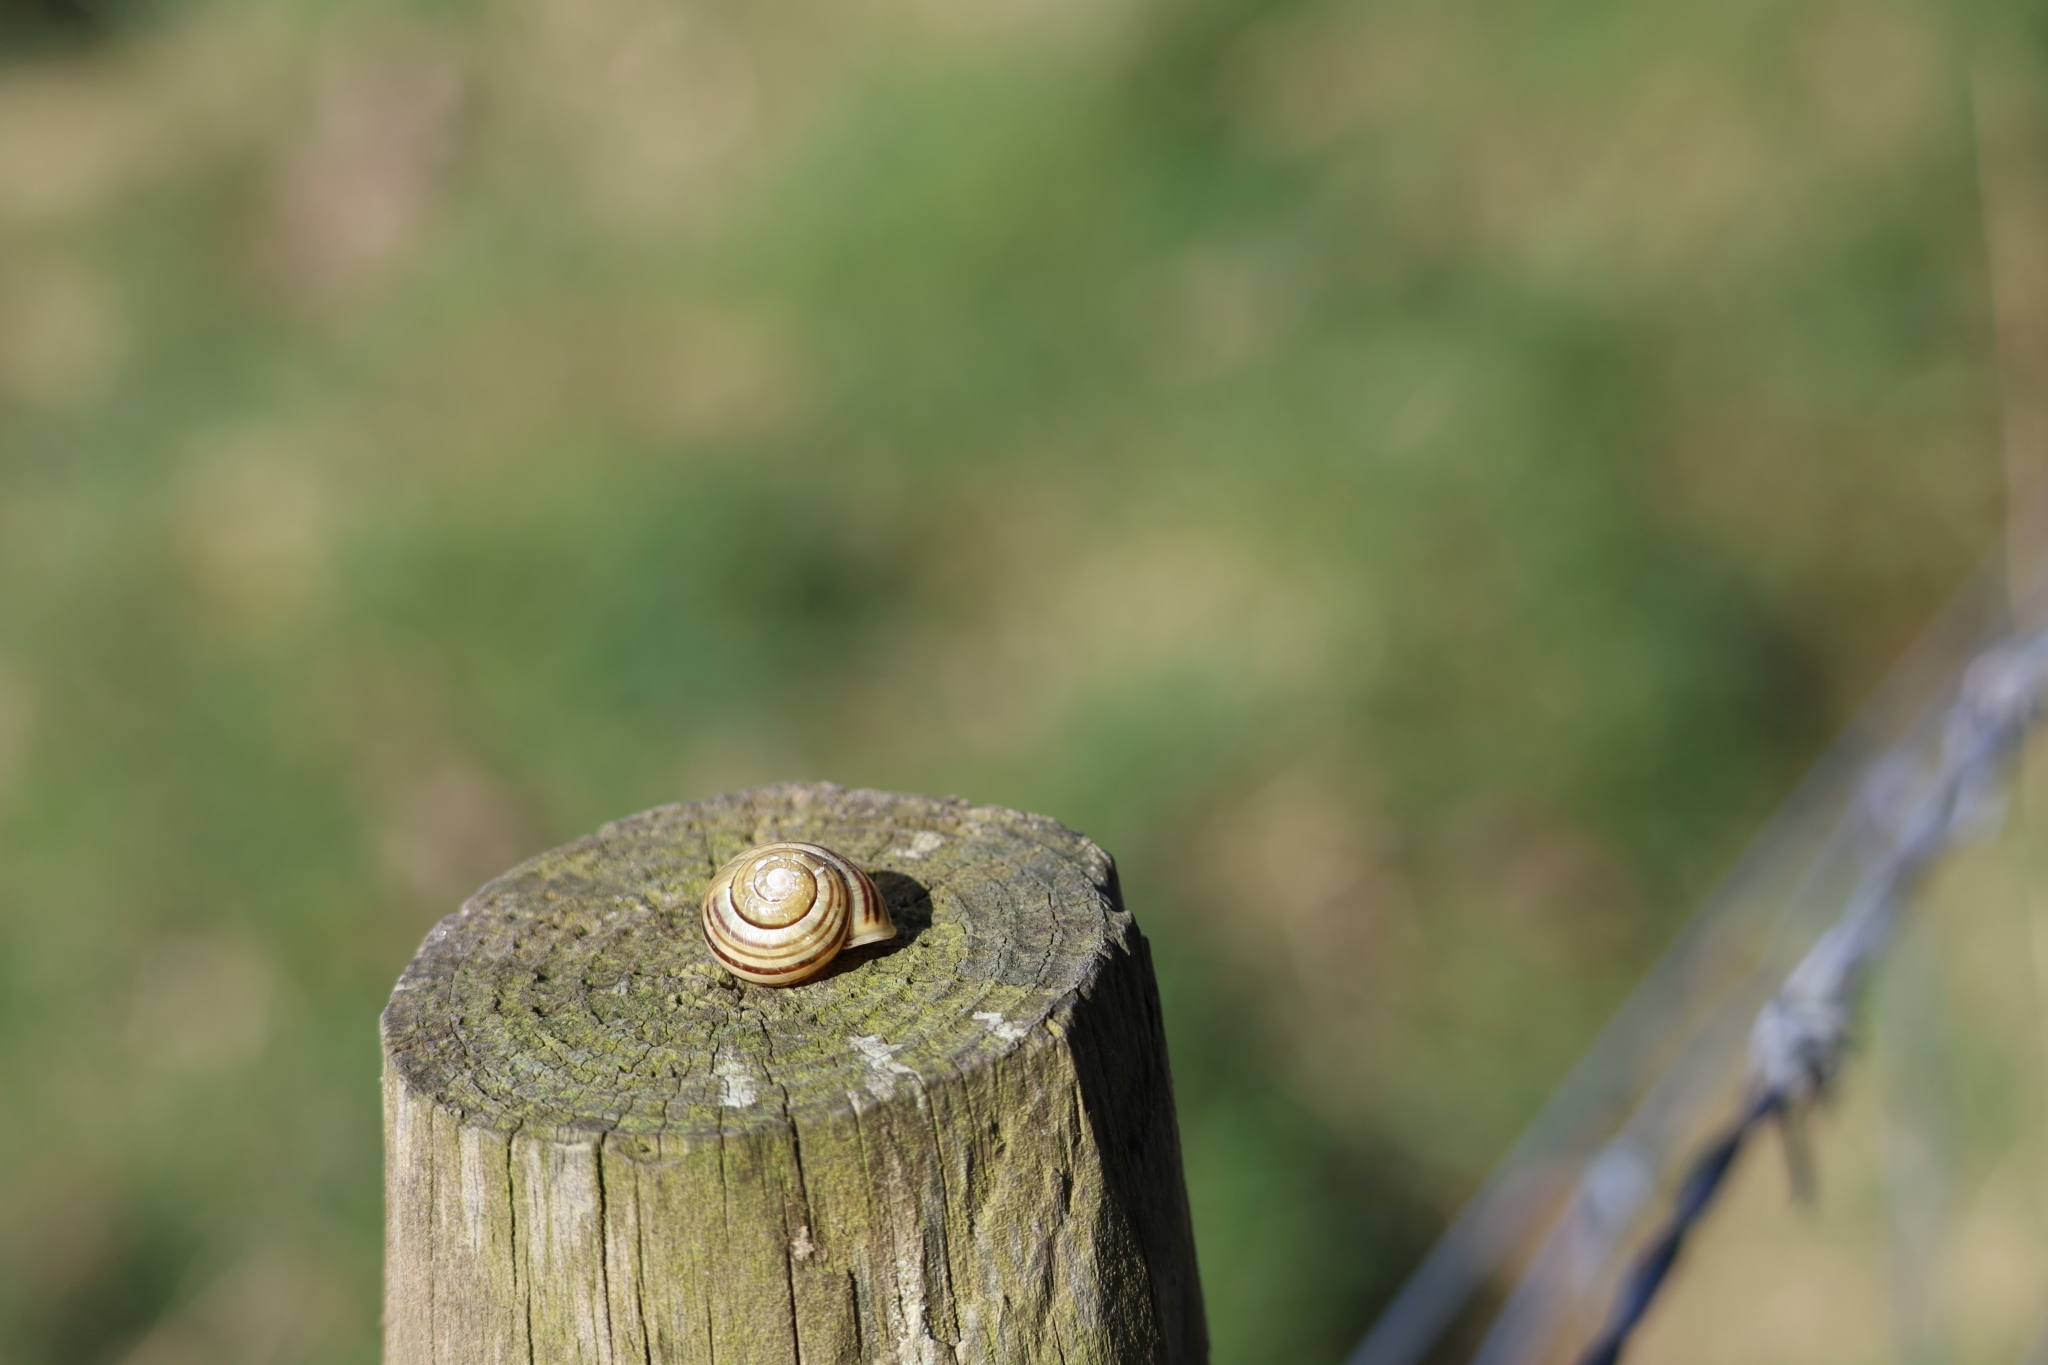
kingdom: Animalia
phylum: Mollusca
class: Gastropoda
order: Stylommatophora
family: Helicidae
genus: Cepaea
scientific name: Cepaea hortensis
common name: White-lip gardensnail
